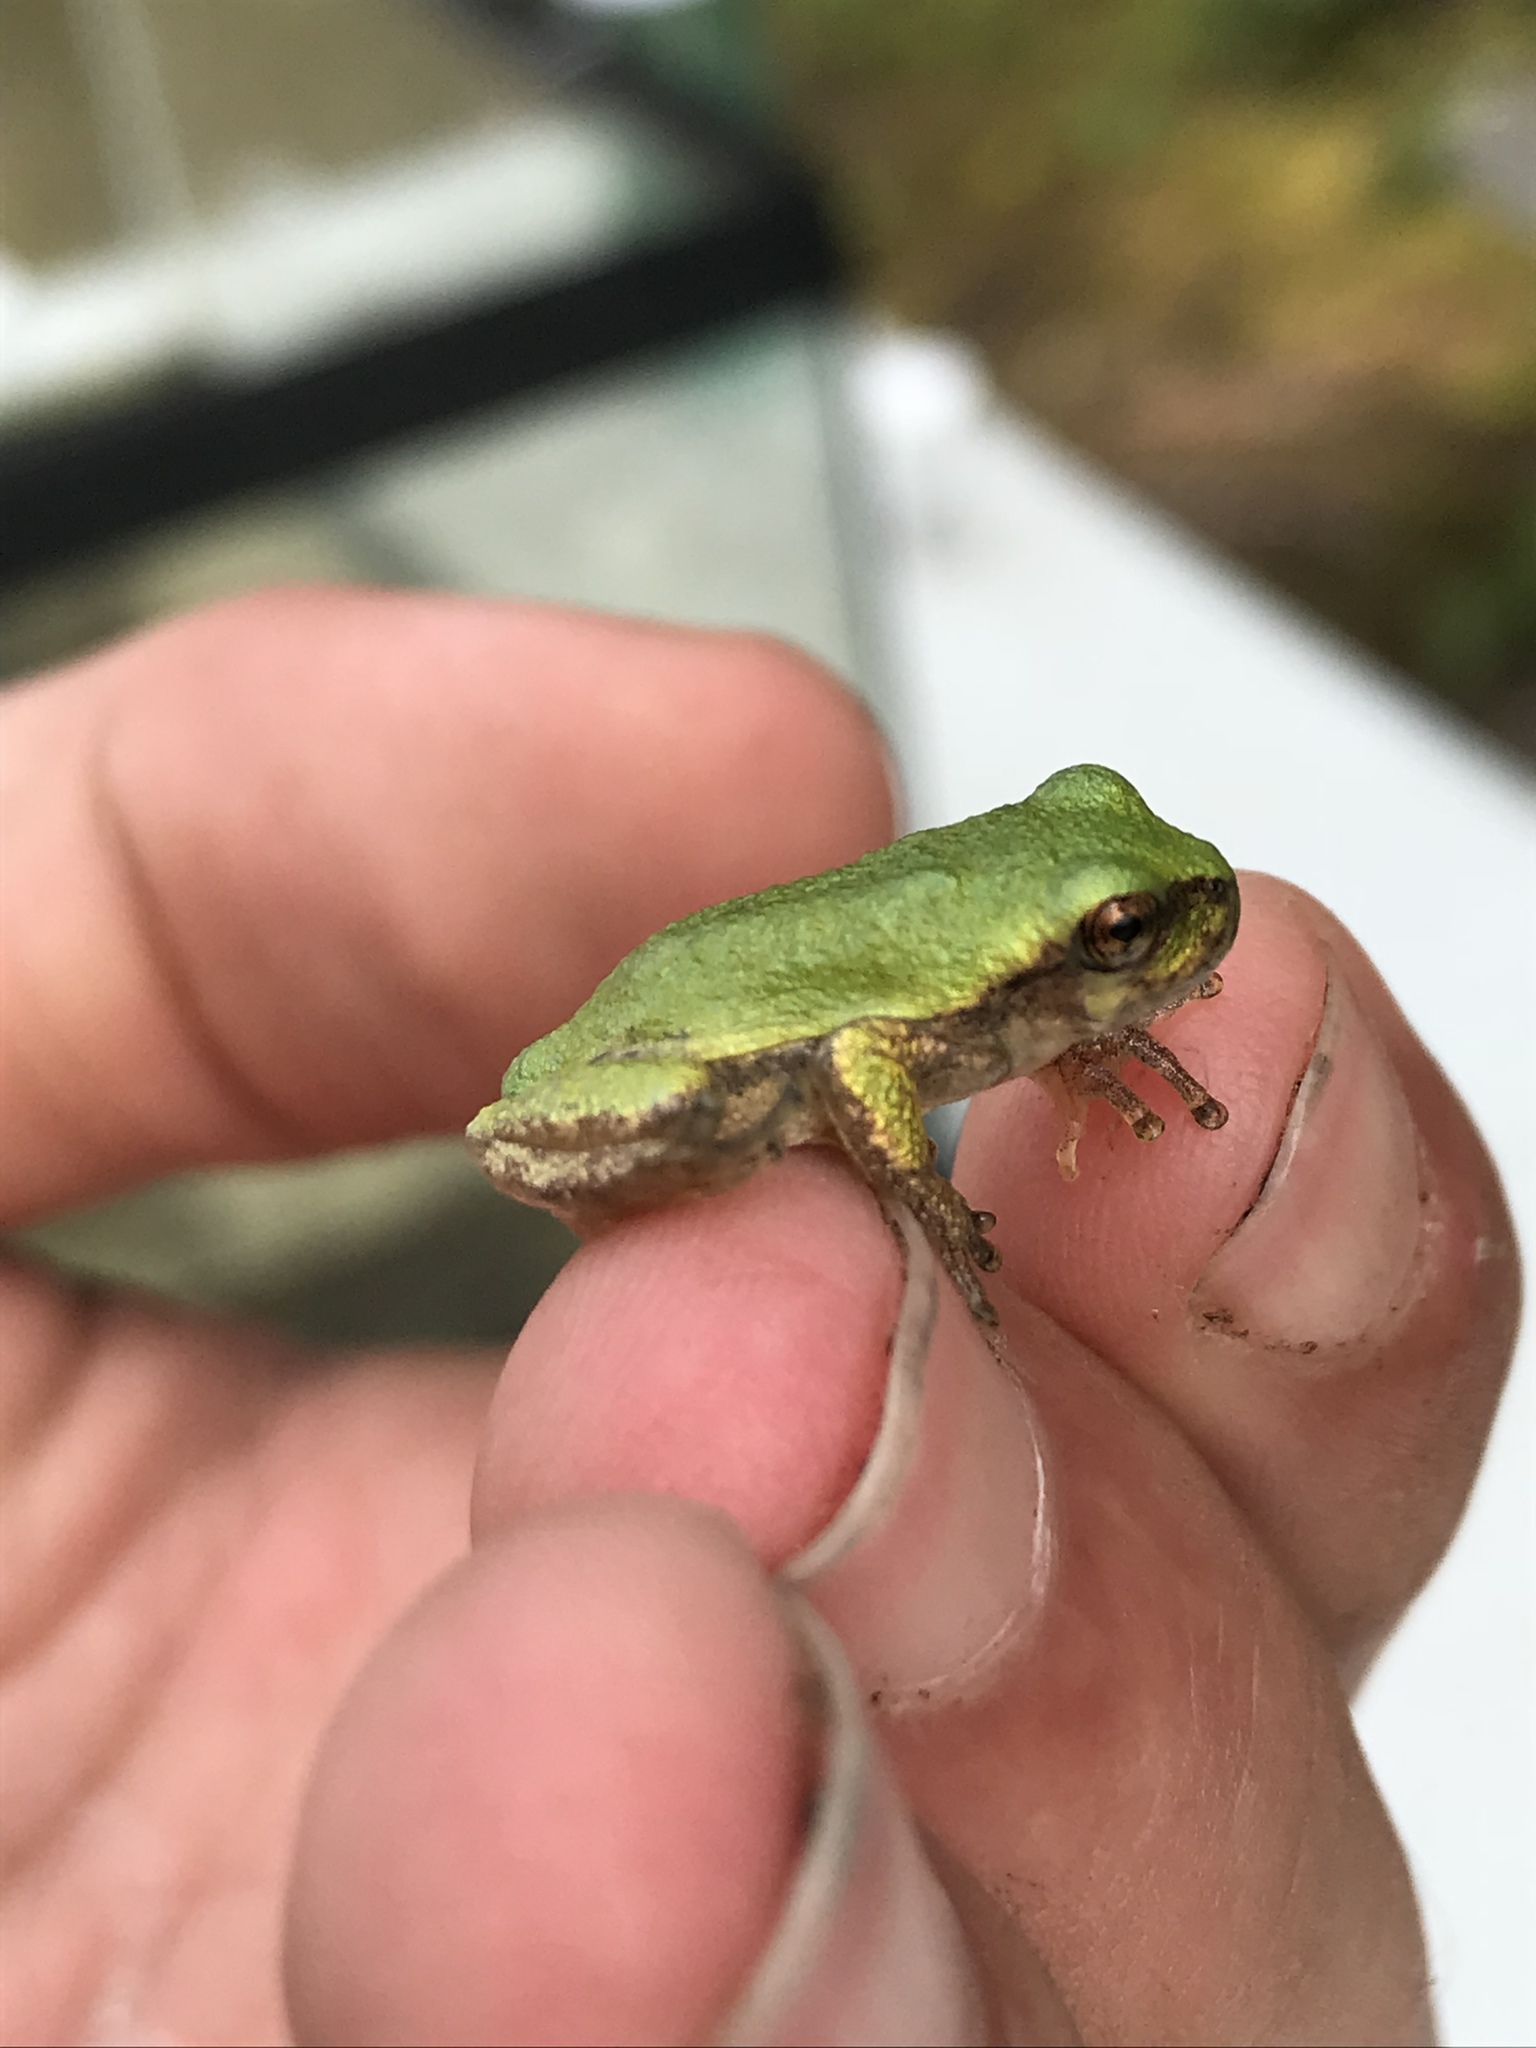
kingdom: Animalia
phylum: Chordata
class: Amphibia
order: Anura
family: Hylidae
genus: Dryophytes
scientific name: Dryophytes versicolor
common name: Gray treefrog
